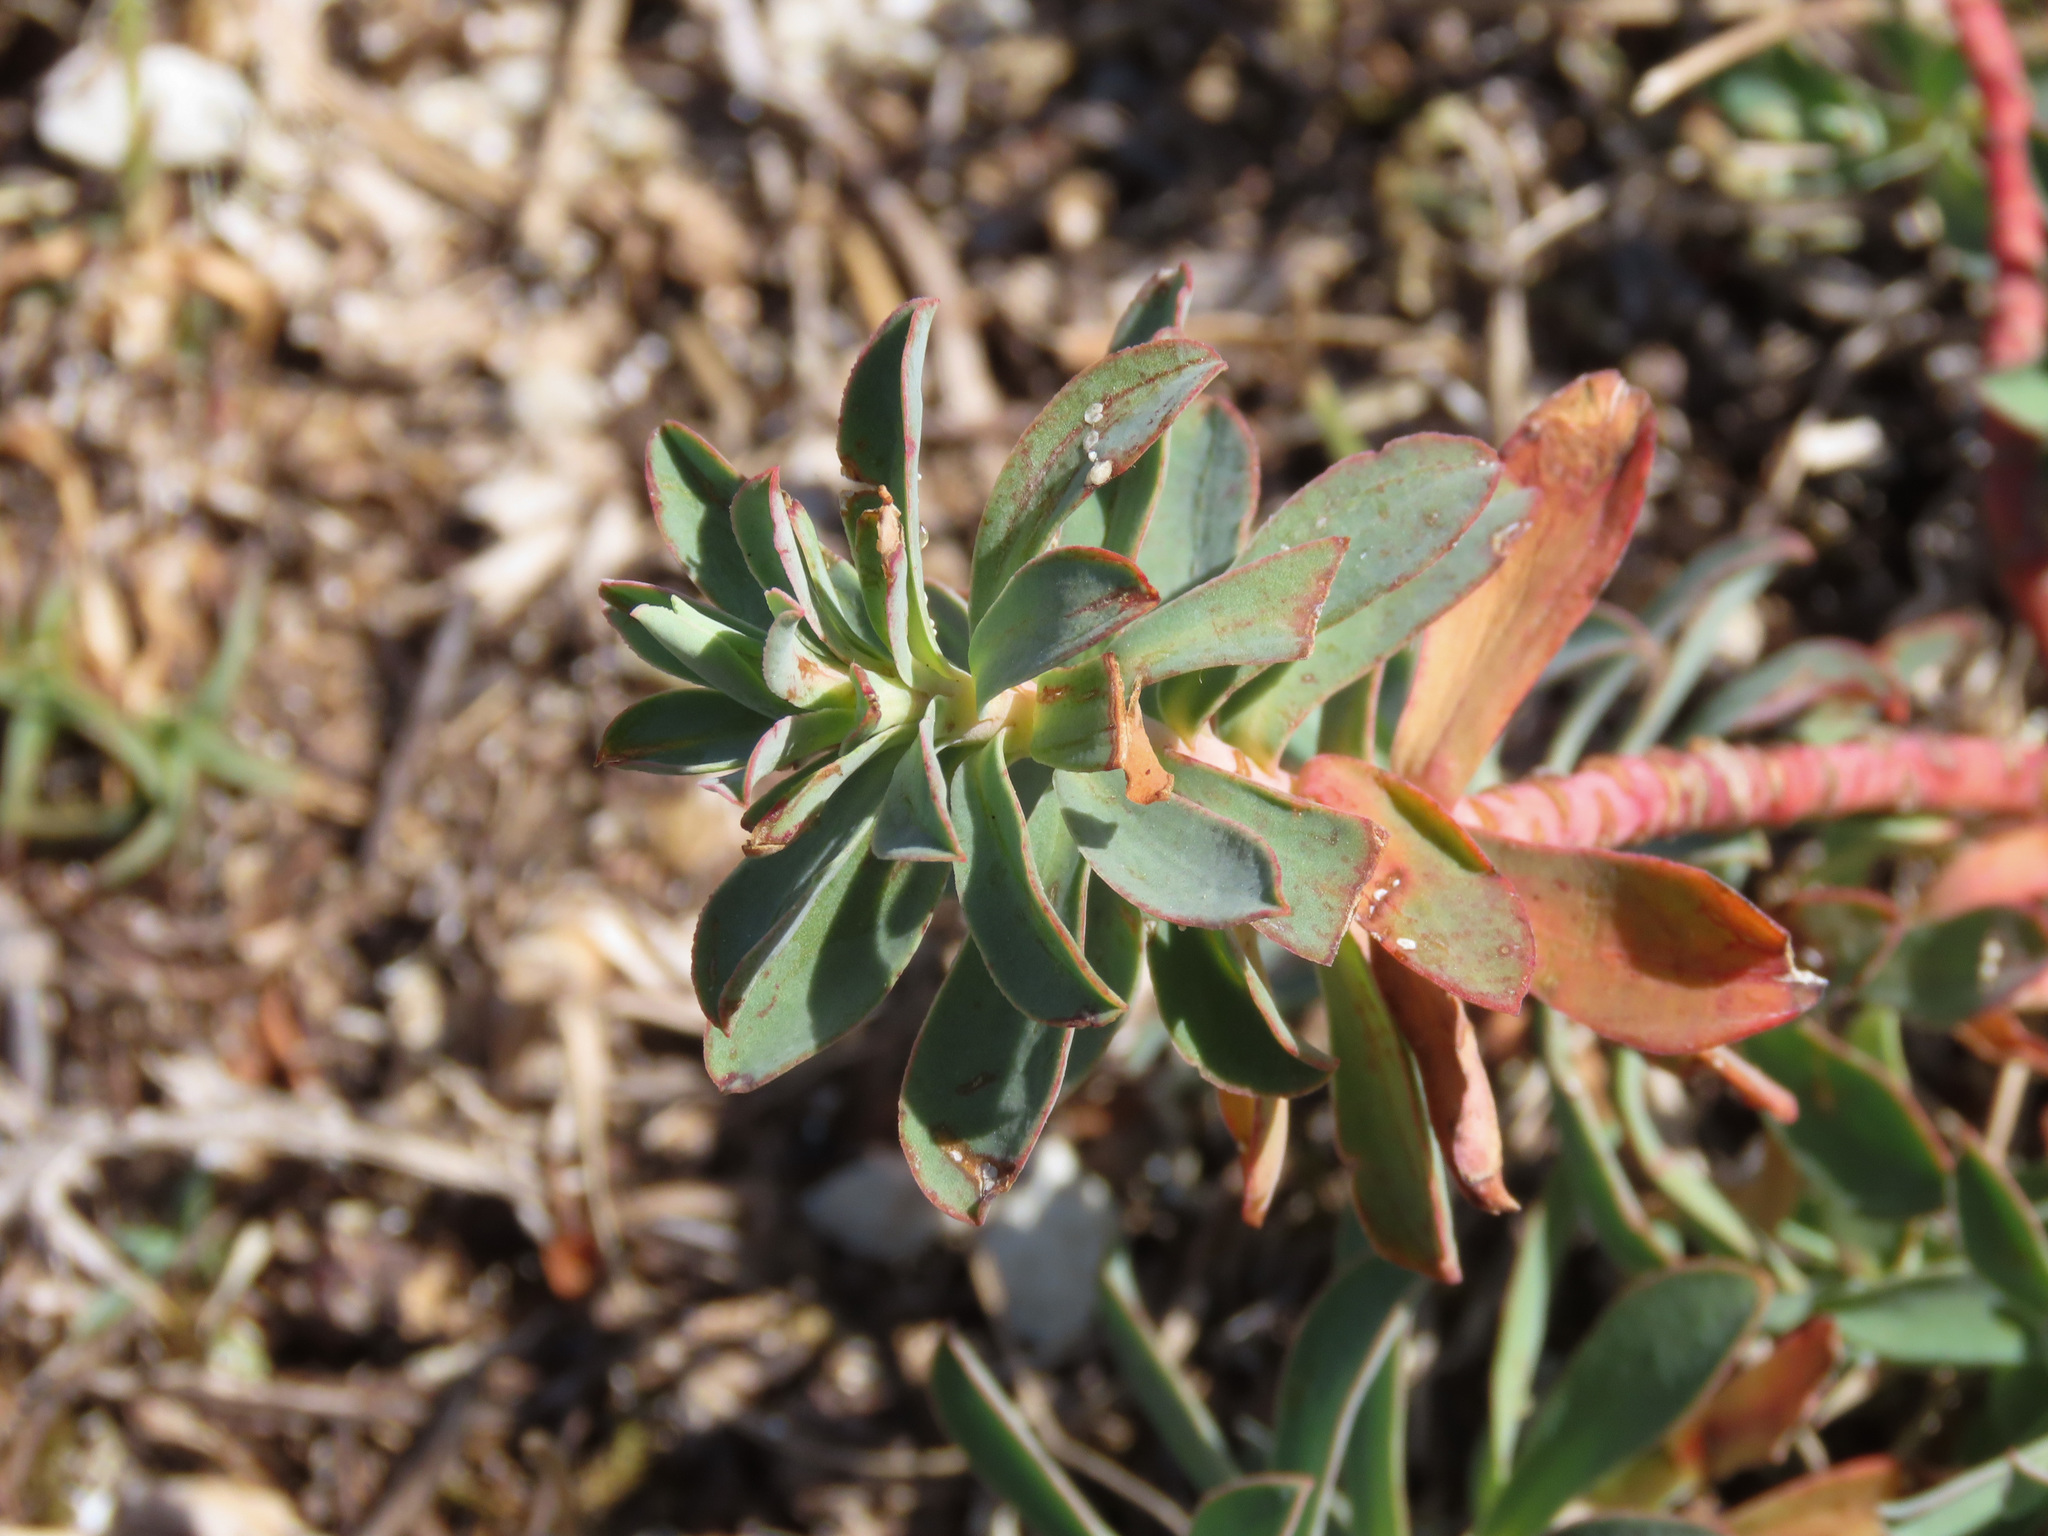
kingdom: Plantae
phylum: Tracheophyta
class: Magnoliopsida
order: Malpighiales
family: Euphorbiaceae
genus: Euphorbia
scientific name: Euphorbia nicaeensis
